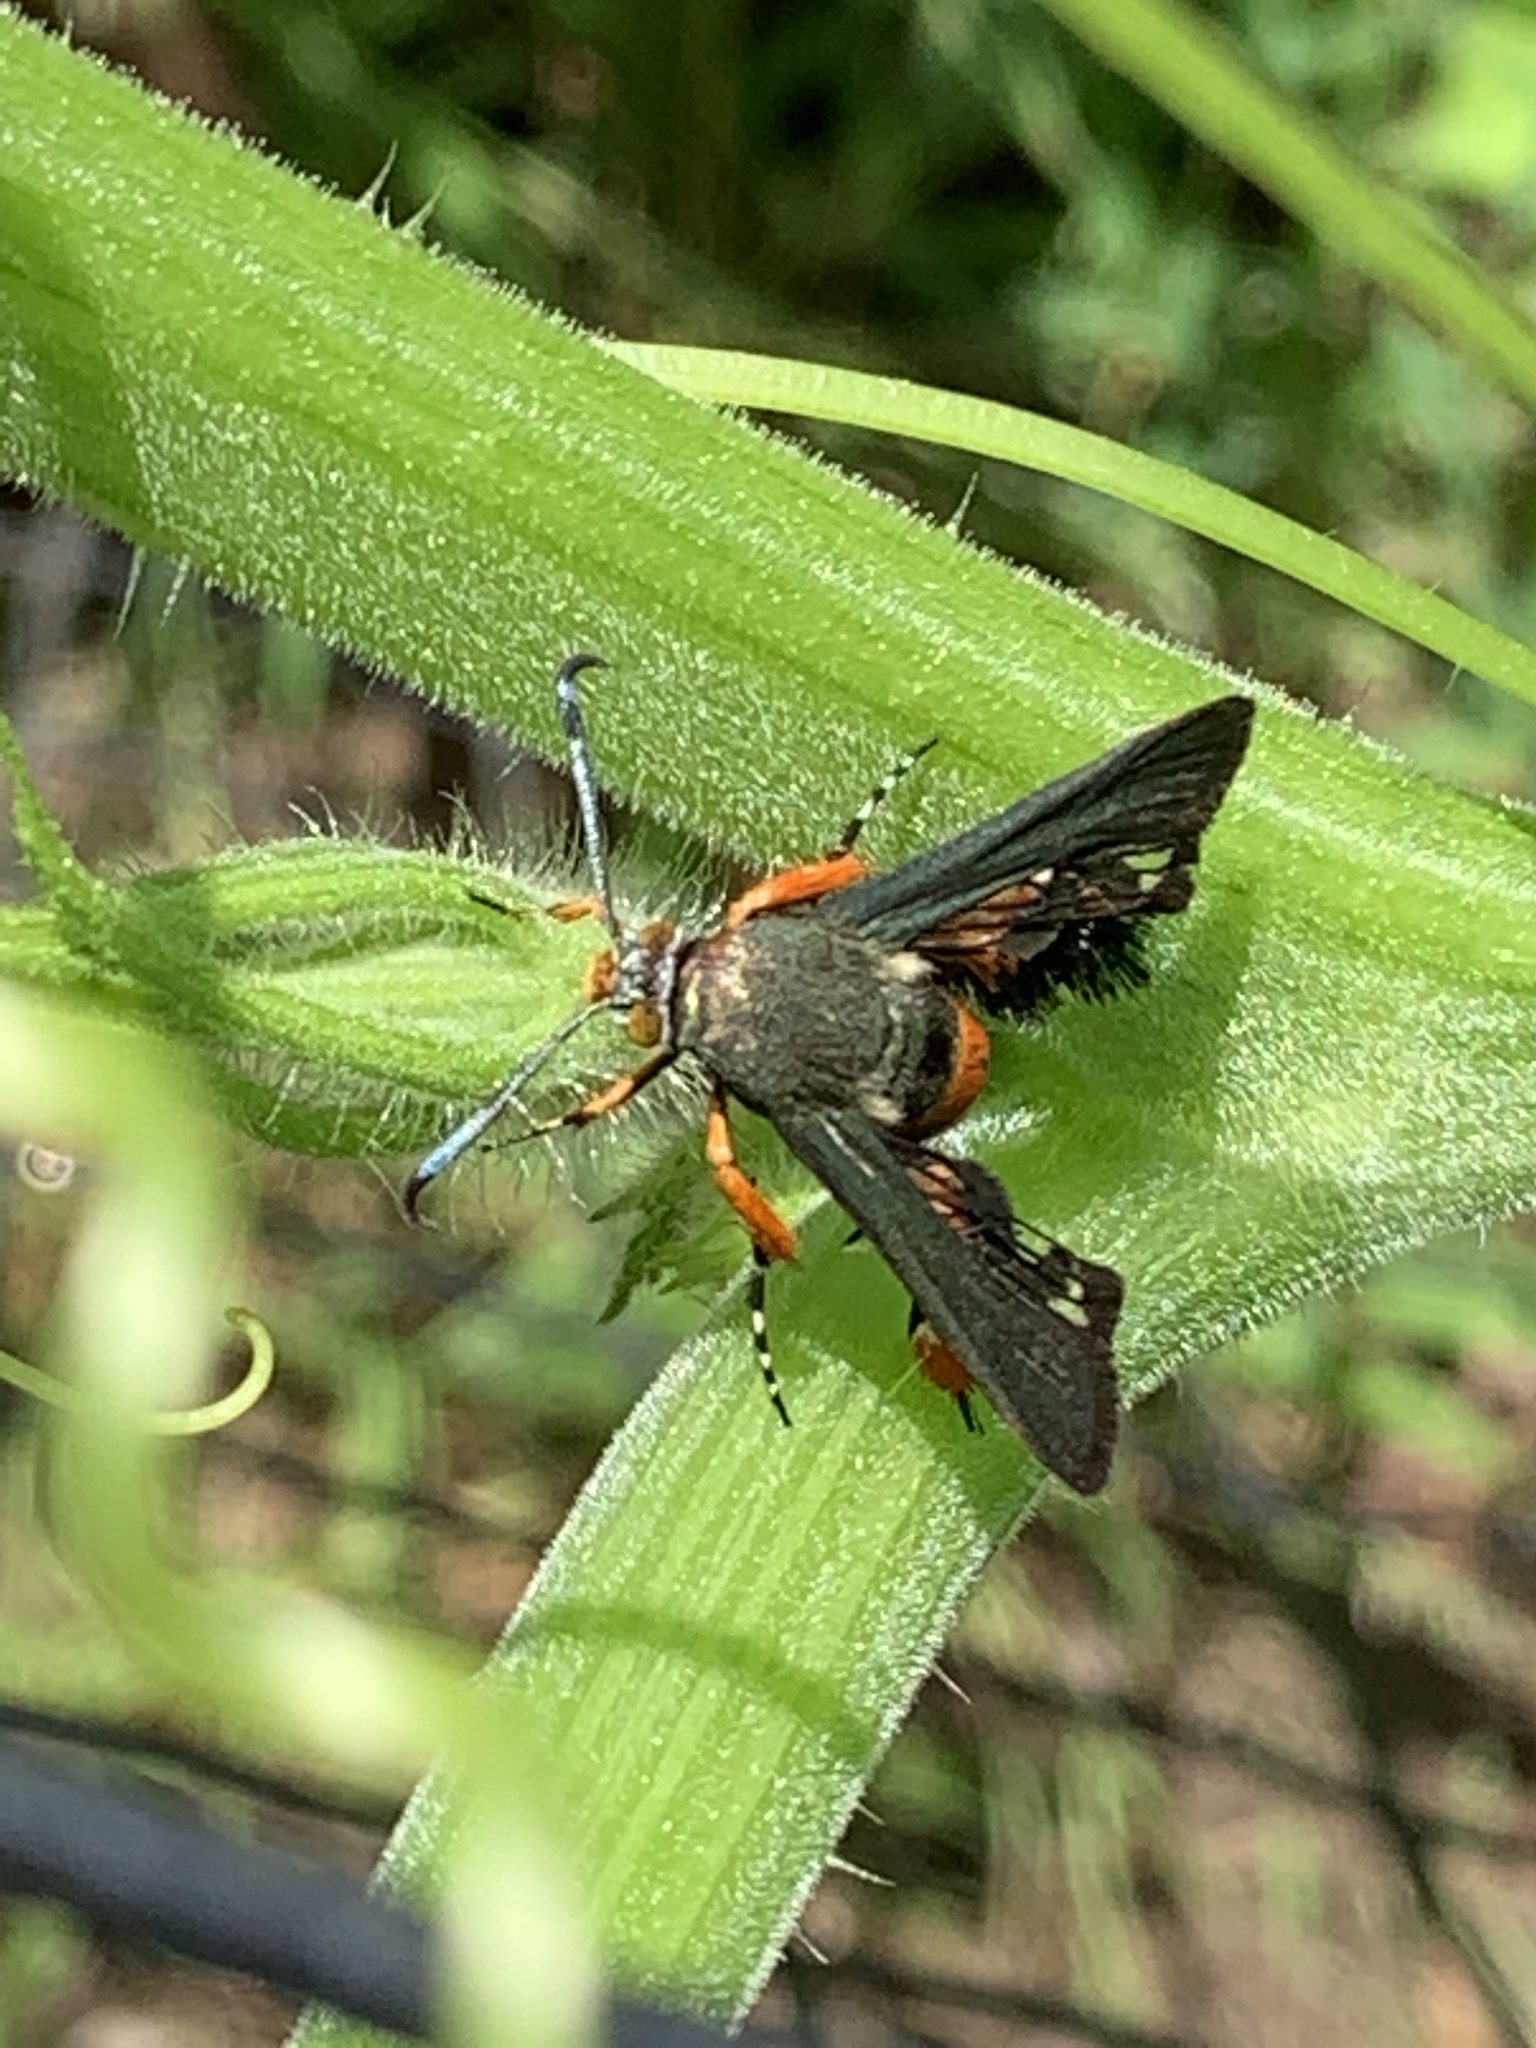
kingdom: Animalia
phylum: Arthropoda
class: Insecta
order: Lepidoptera
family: Sesiidae
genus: Eichlinia
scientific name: Eichlinia cucurbitae
